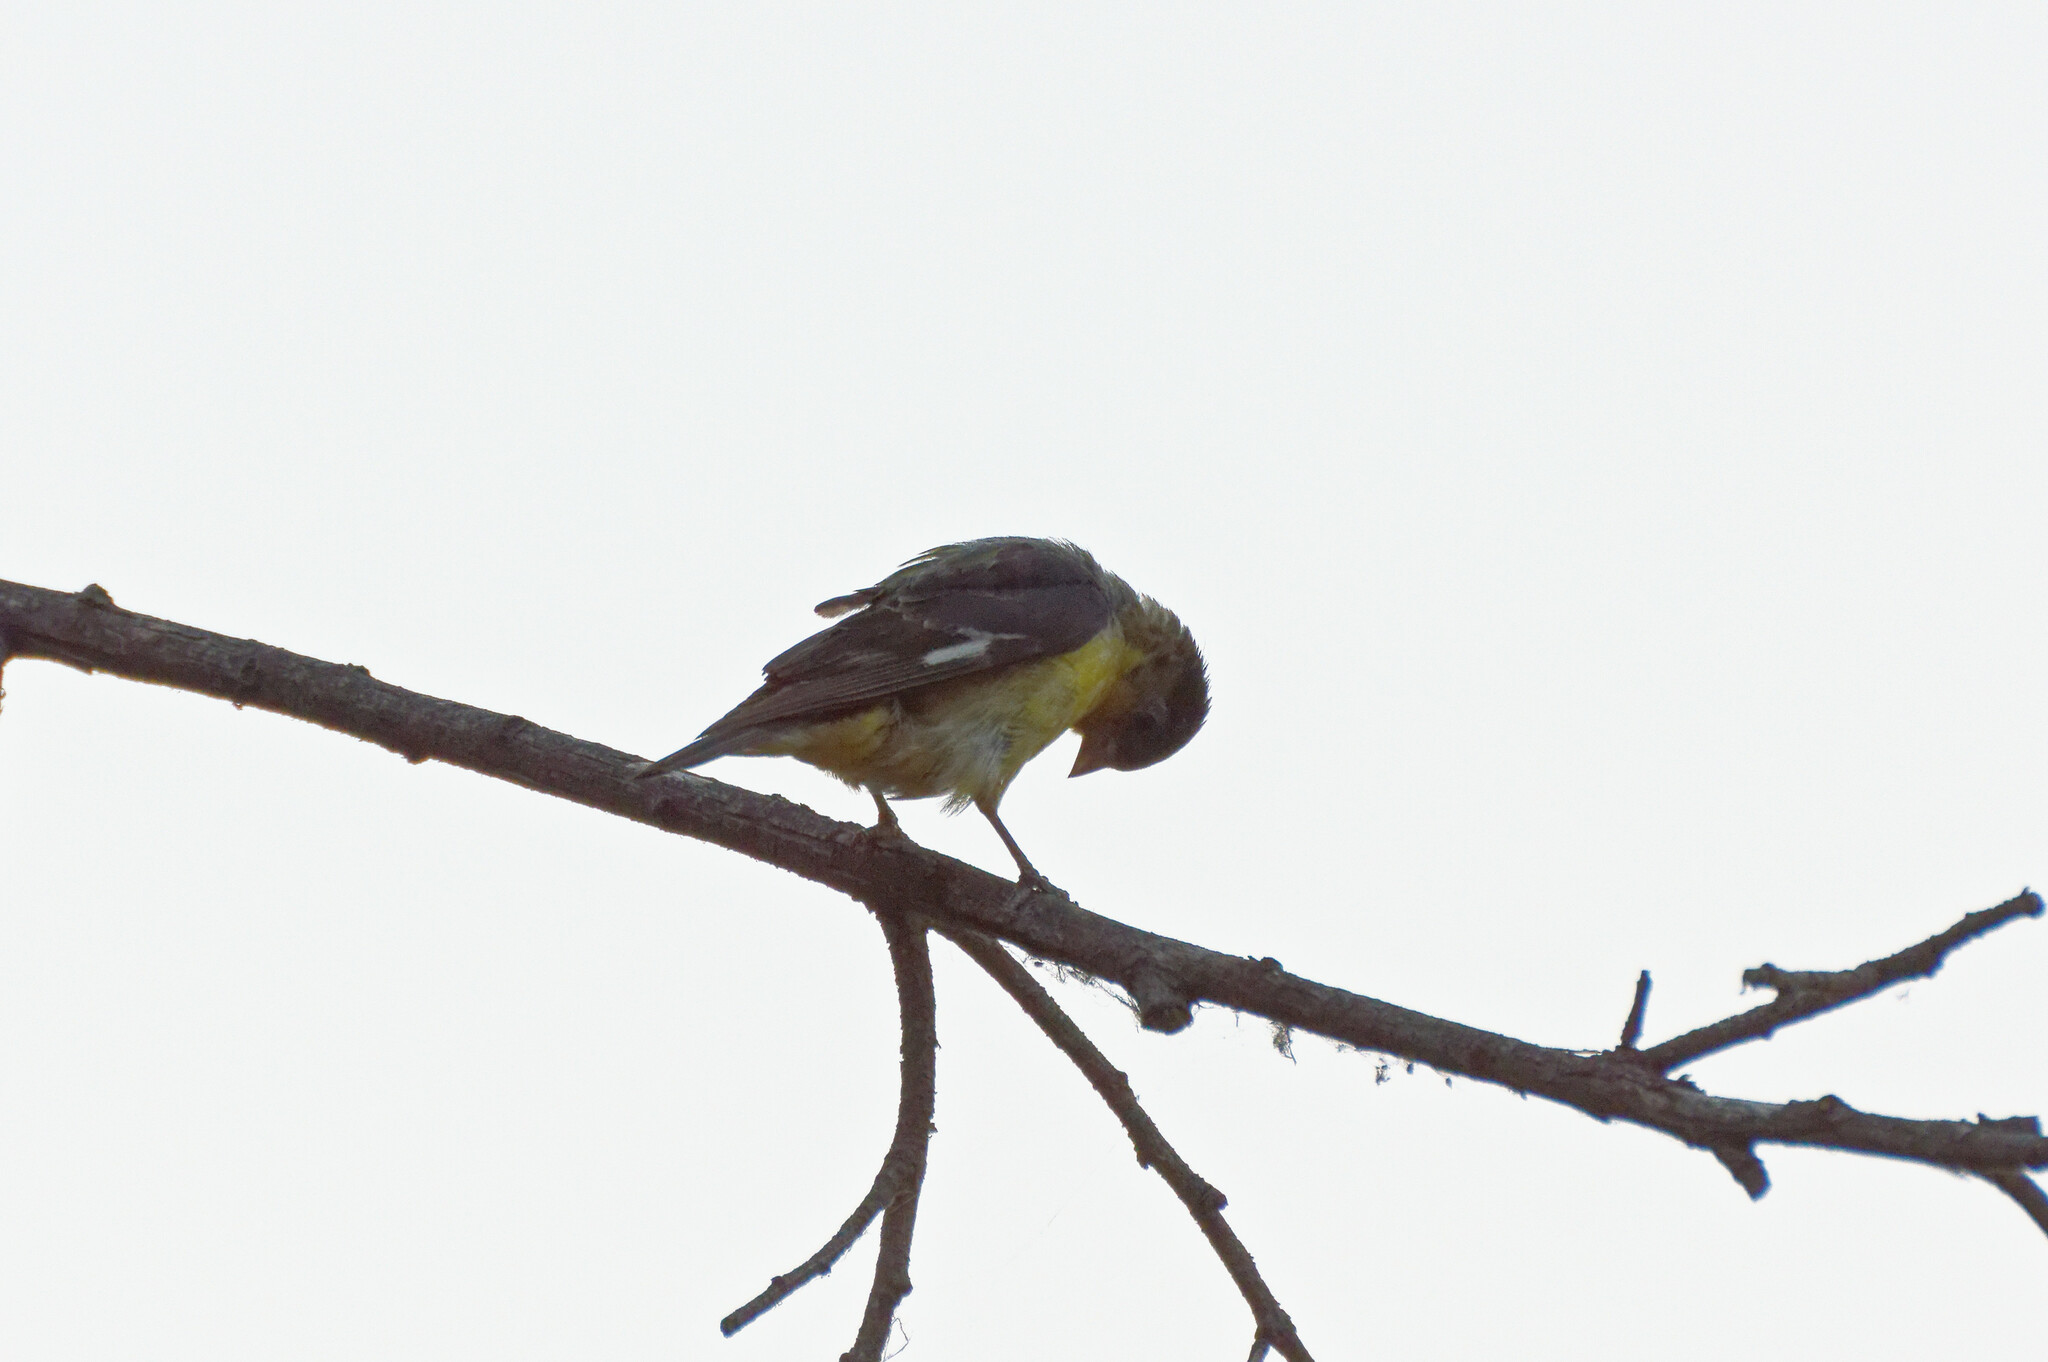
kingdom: Animalia
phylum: Chordata
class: Aves
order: Passeriformes
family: Fringillidae
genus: Spinus
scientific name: Spinus psaltria
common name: Lesser goldfinch
